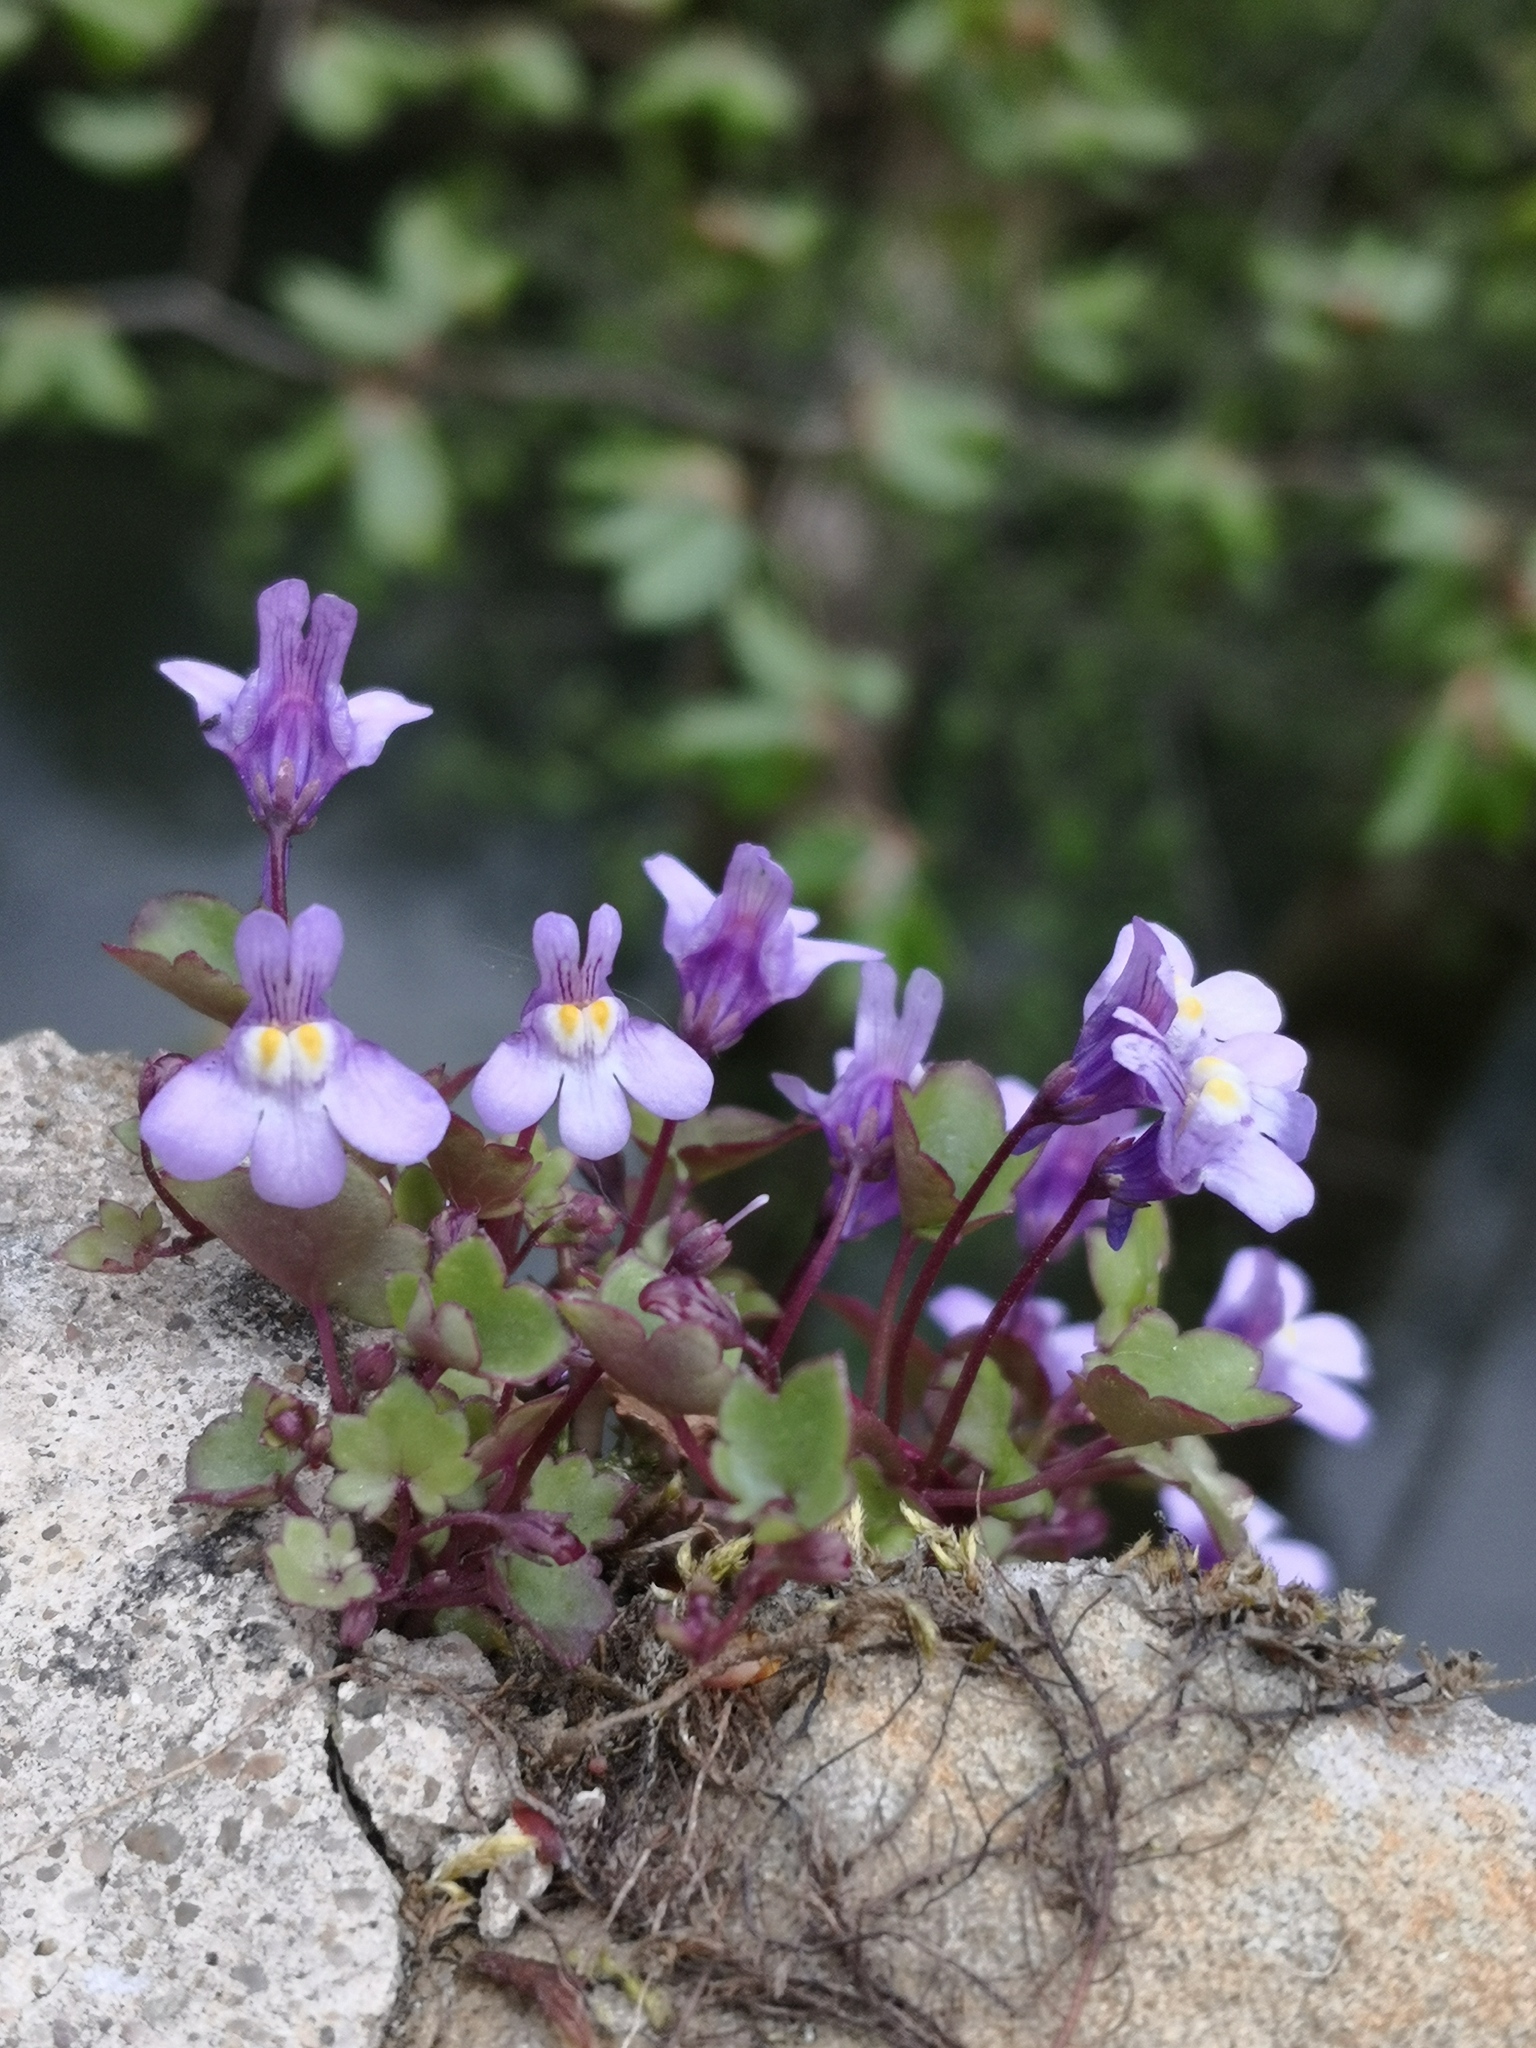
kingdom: Plantae
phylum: Tracheophyta
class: Magnoliopsida
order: Lamiales
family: Plantaginaceae
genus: Cymbalaria
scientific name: Cymbalaria muralis
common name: Ivy-leaved toadflax
